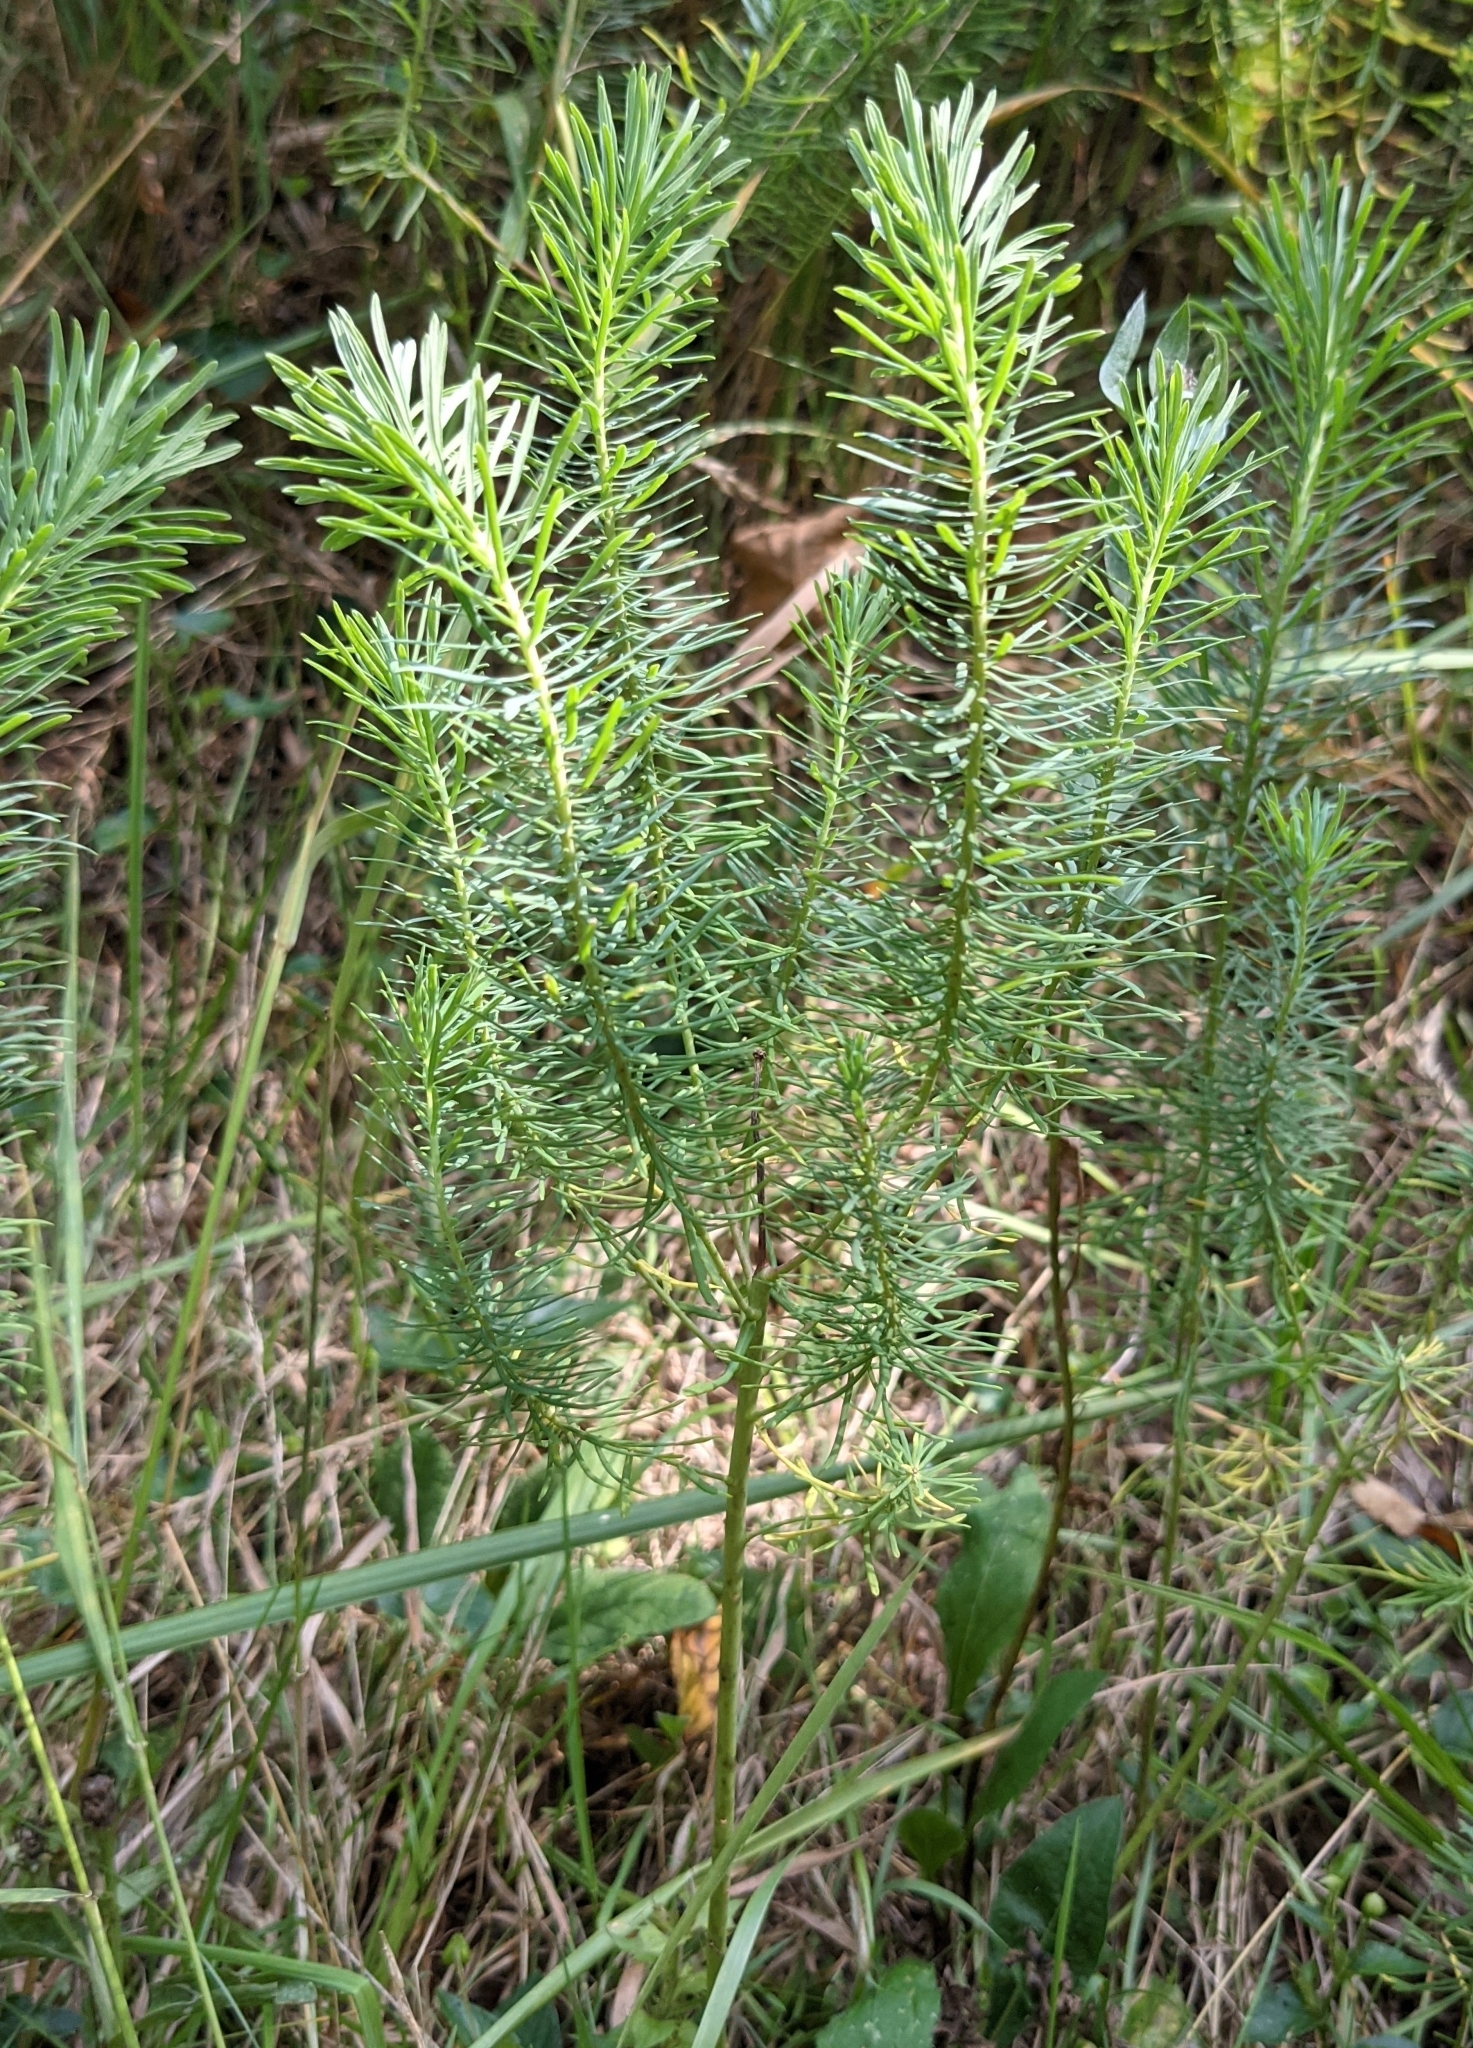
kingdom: Plantae
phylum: Tracheophyta
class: Magnoliopsida
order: Malpighiales
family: Euphorbiaceae
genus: Euphorbia
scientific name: Euphorbia cyparissias
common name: Cypress spurge
